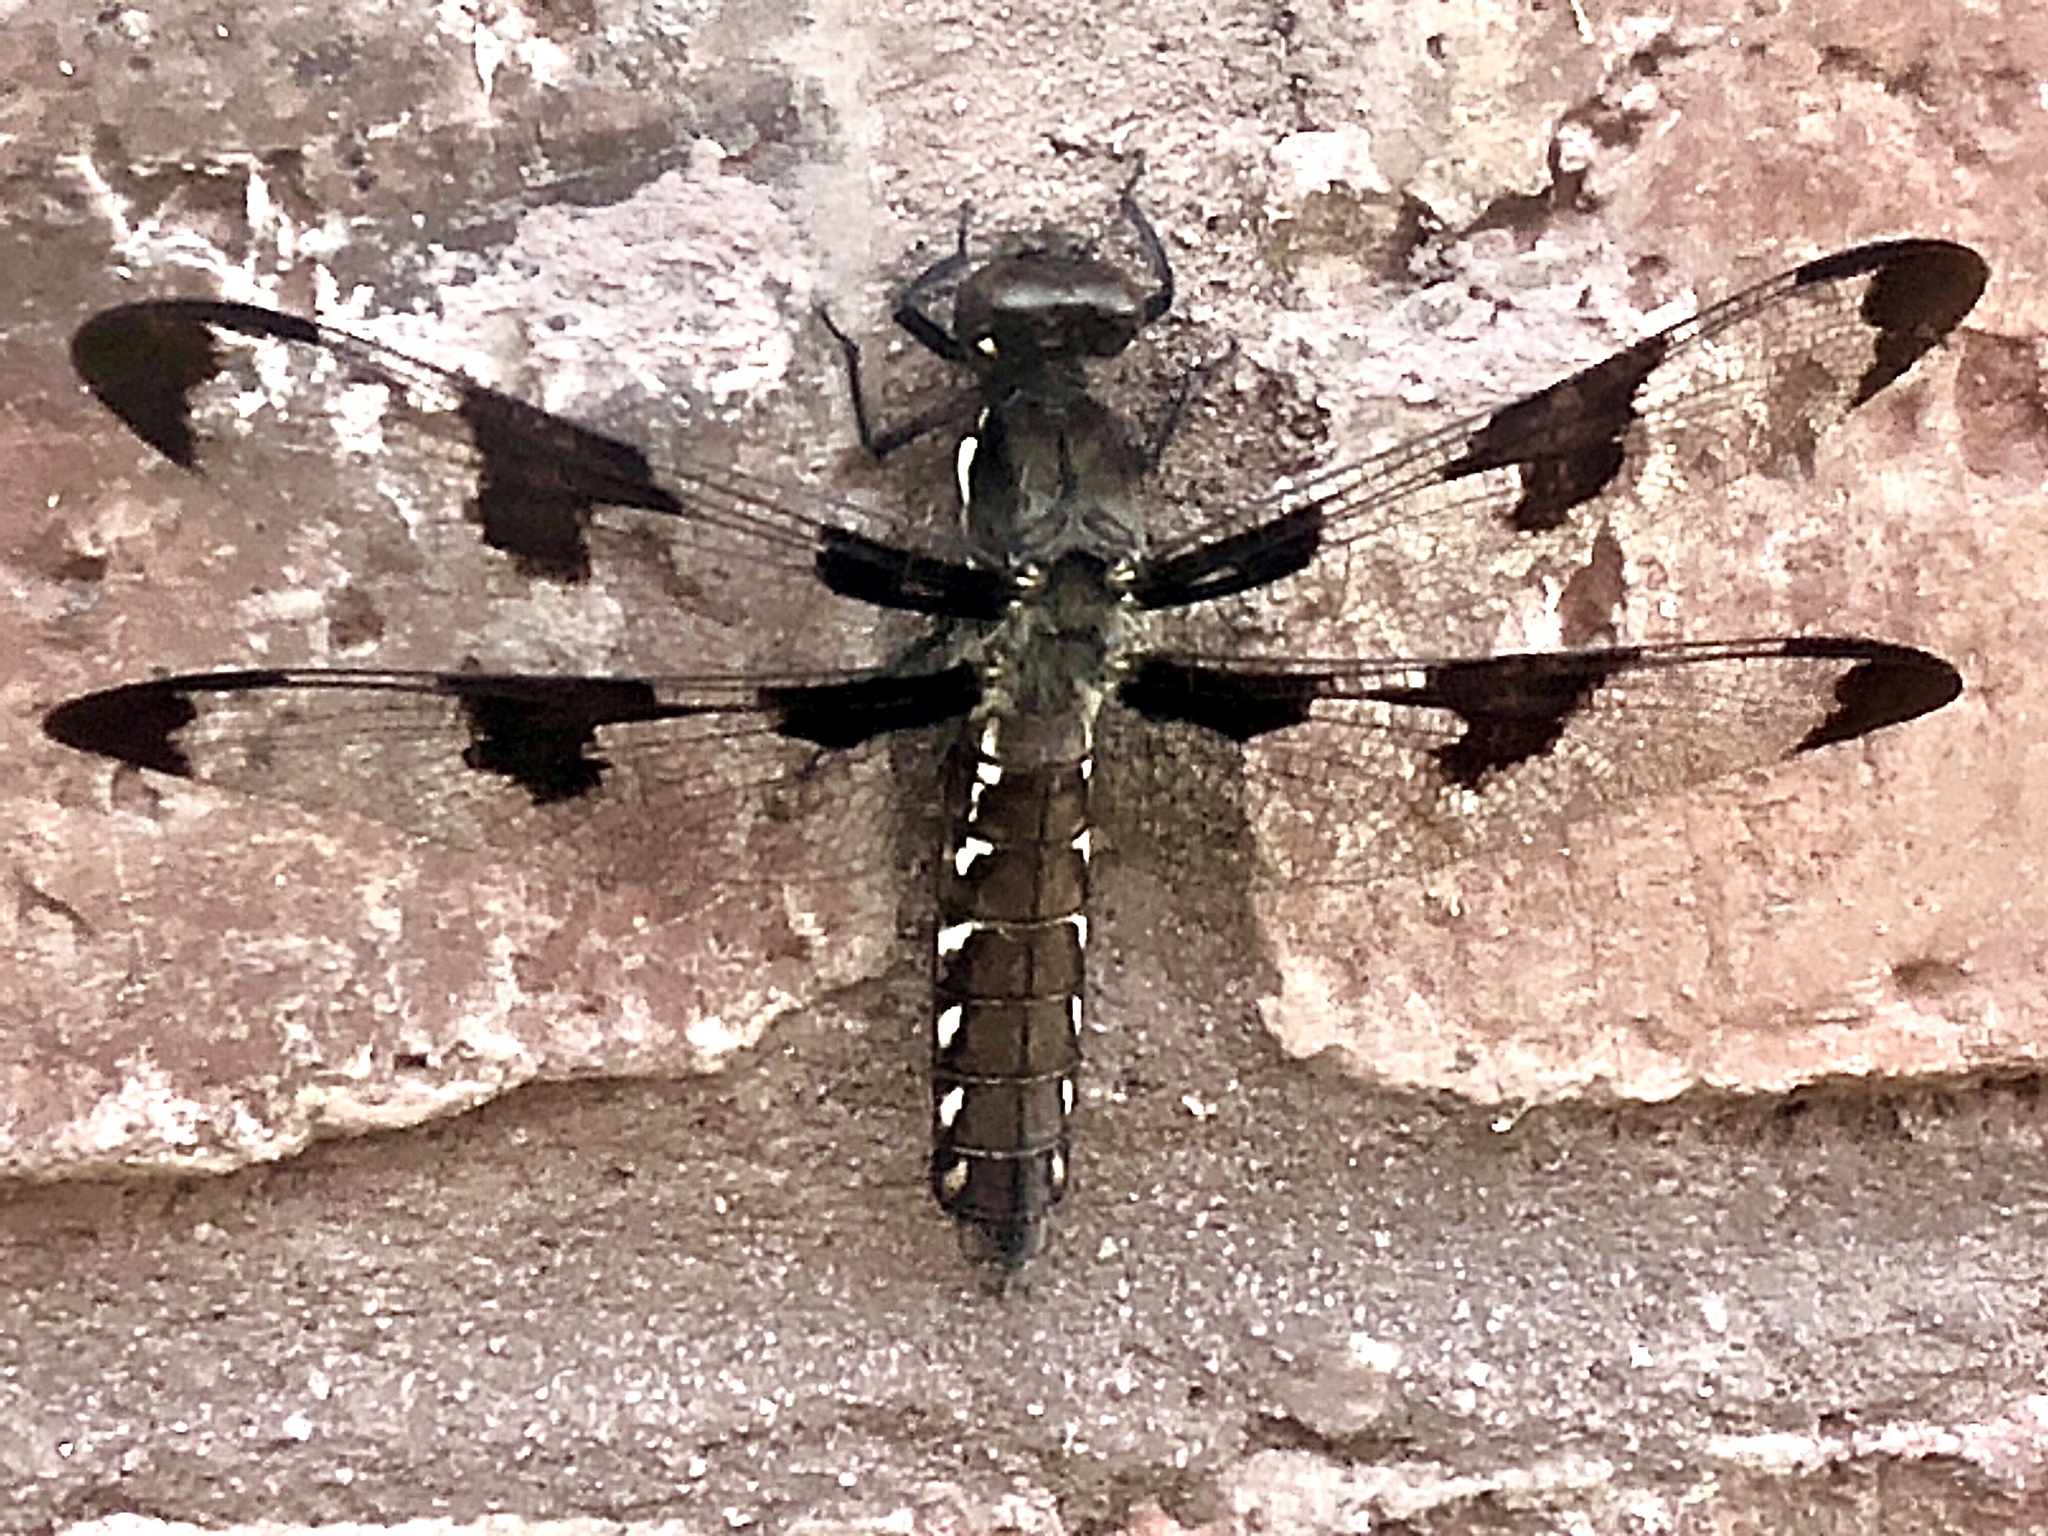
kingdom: Animalia
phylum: Arthropoda
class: Insecta
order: Odonata
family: Libellulidae
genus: Plathemis
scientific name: Plathemis lydia
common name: Common whitetail
